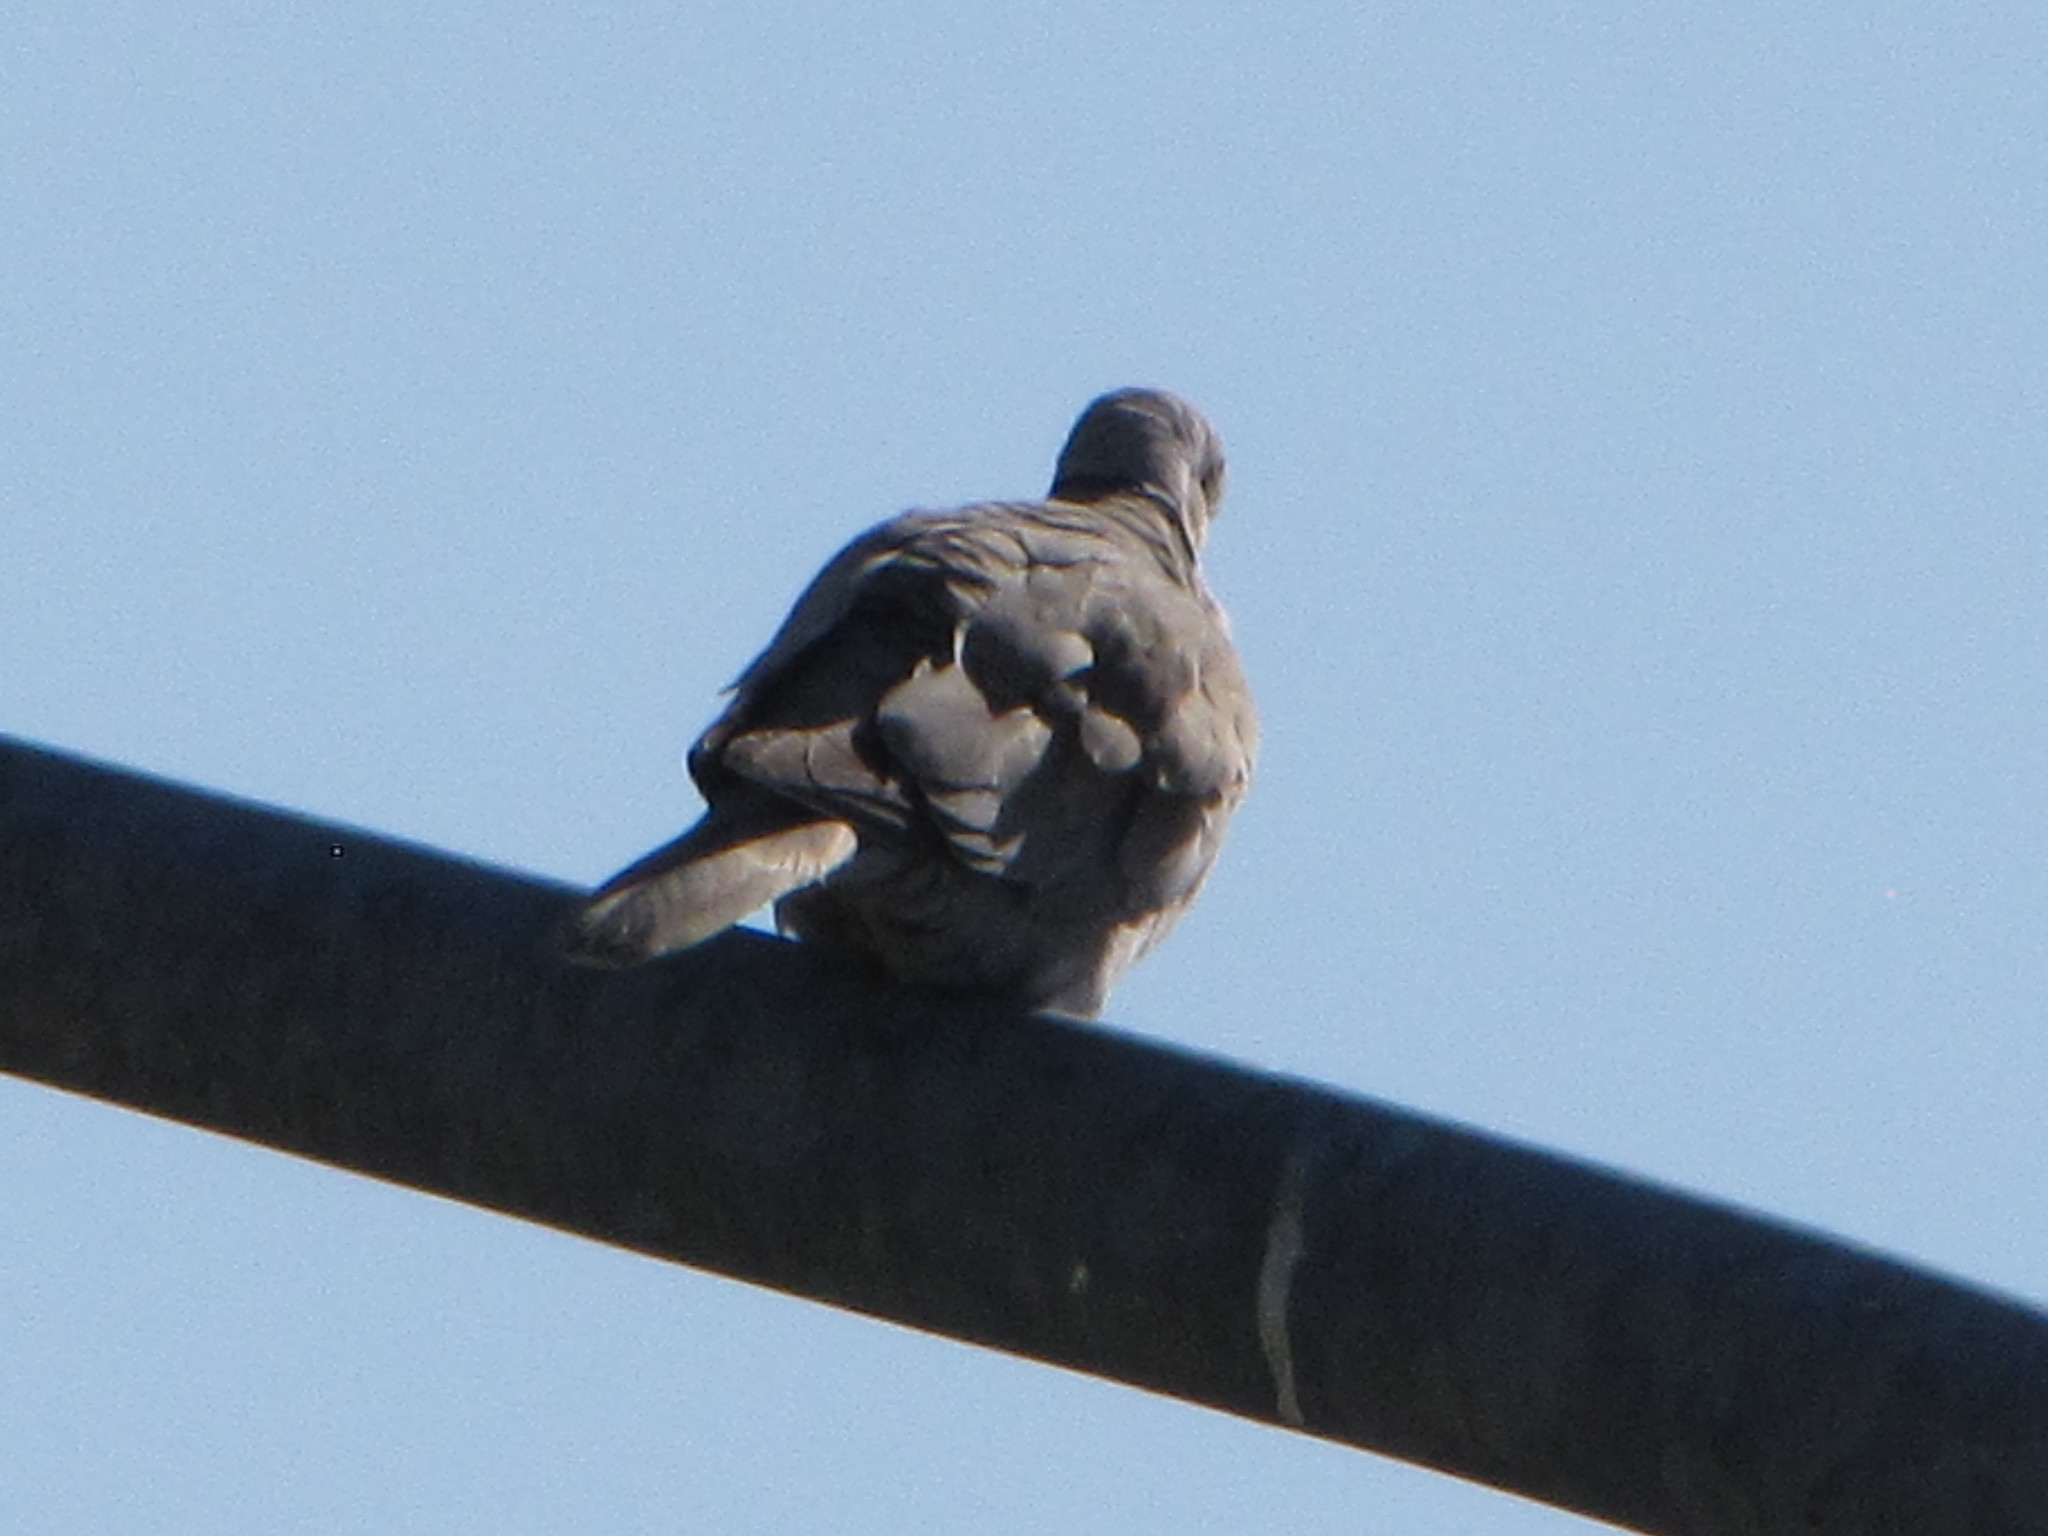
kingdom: Animalia
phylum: Chordata
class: Aves
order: Columbiformes
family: Columbidae
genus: Streptopelia
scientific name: Streptopelia decaocto
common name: Eurasian collared dove
